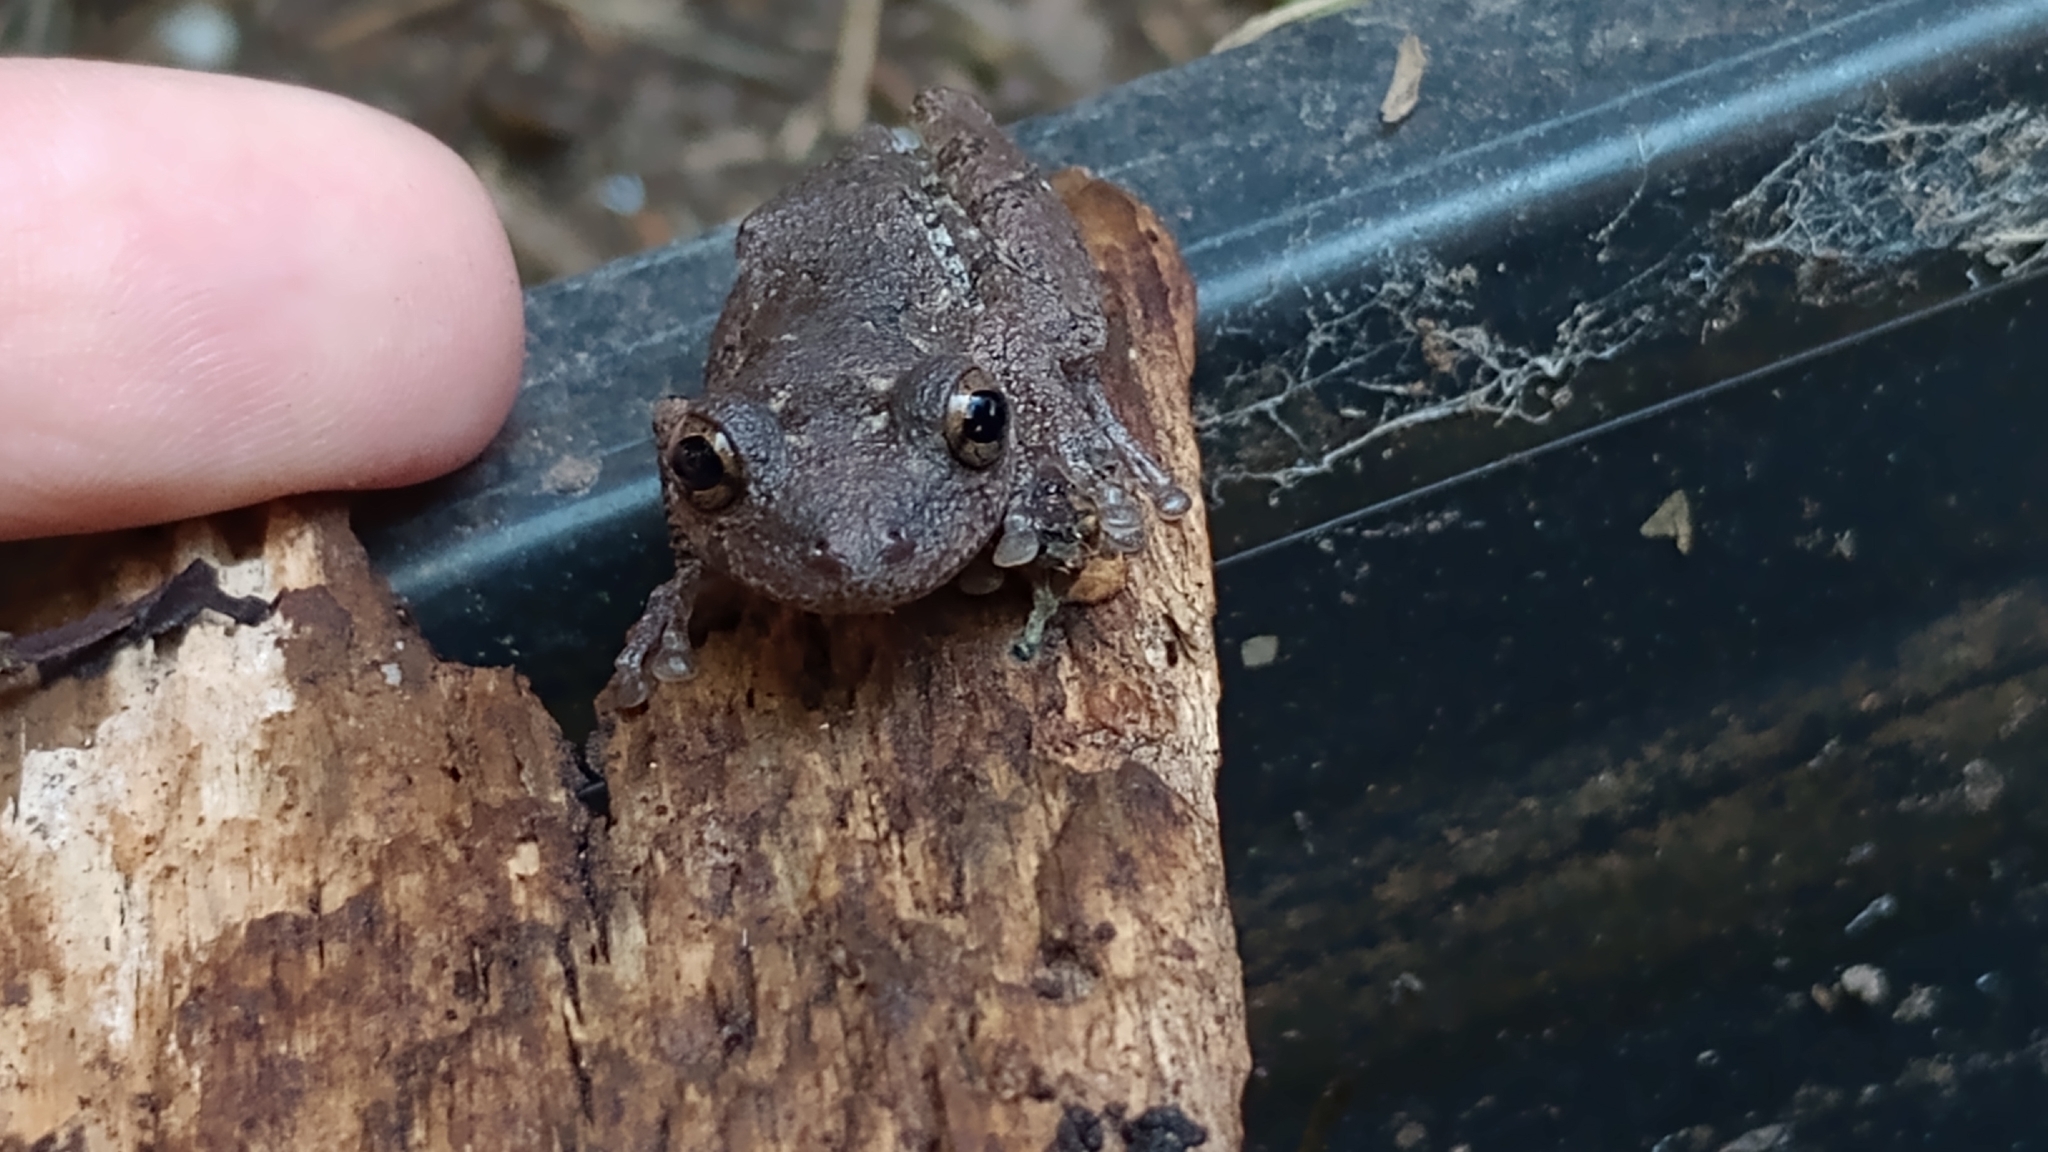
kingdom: Animalia
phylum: Chordata
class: Amphibia
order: Anura
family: Hylidae
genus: Scinax
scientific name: Scinax granulatus
